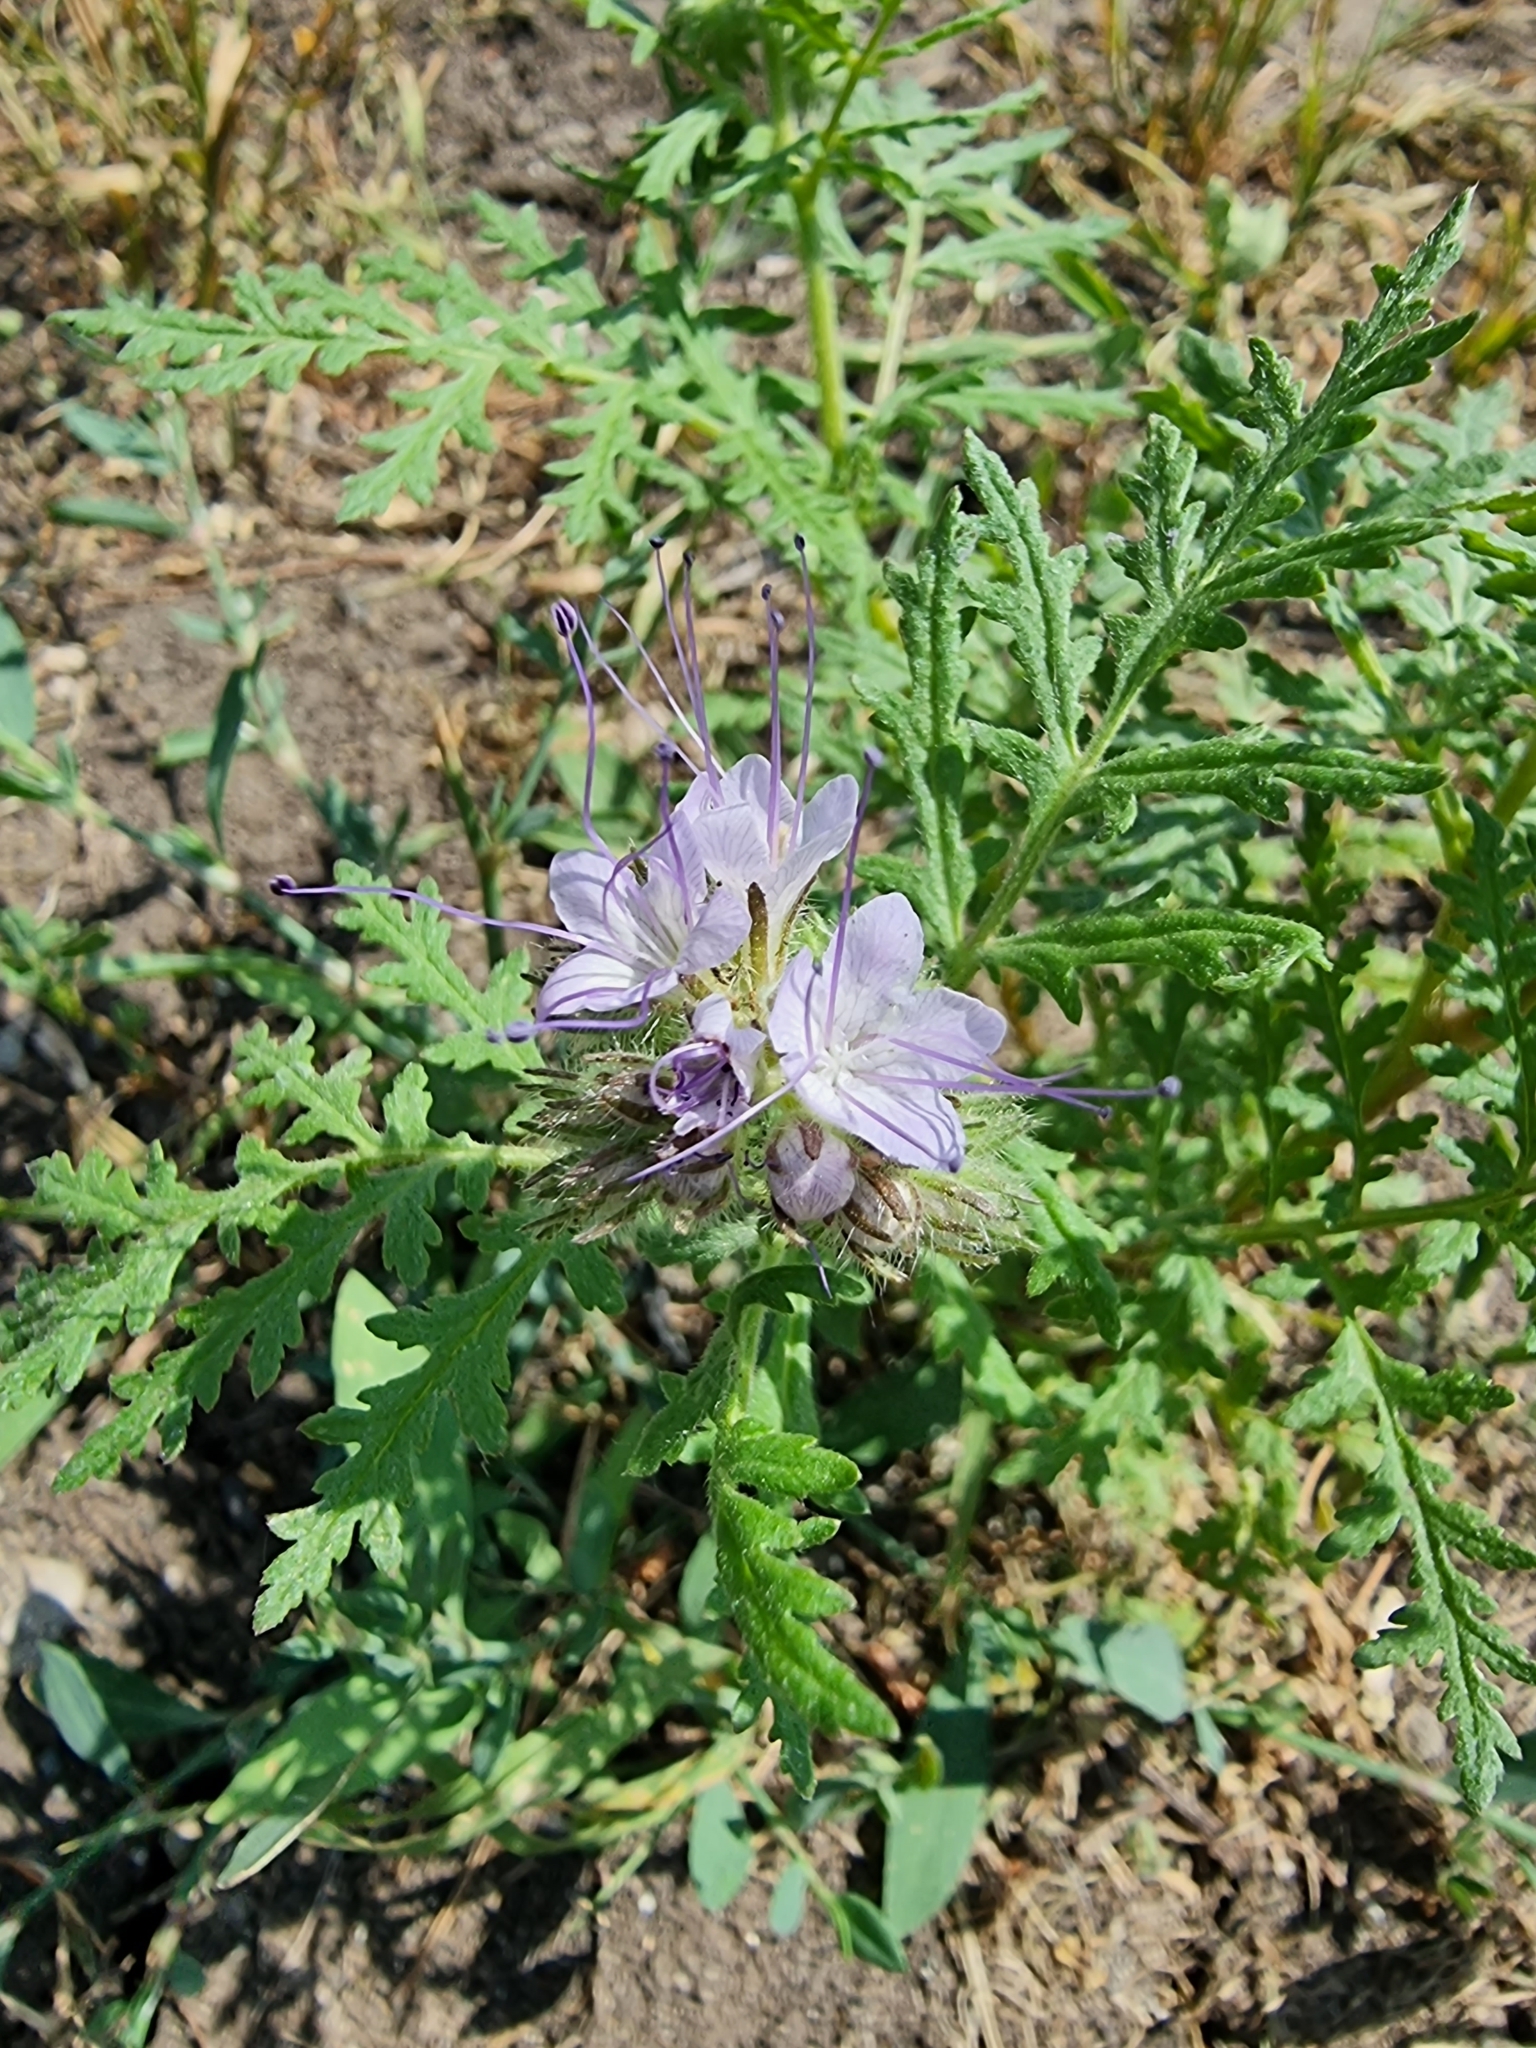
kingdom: Plantae
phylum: Tracheophyta
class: Magnoliopsida
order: Boraginales
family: Hydrophyllaceae
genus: Phacelia
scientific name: Phacelia tanacetifolia
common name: Phacelia
